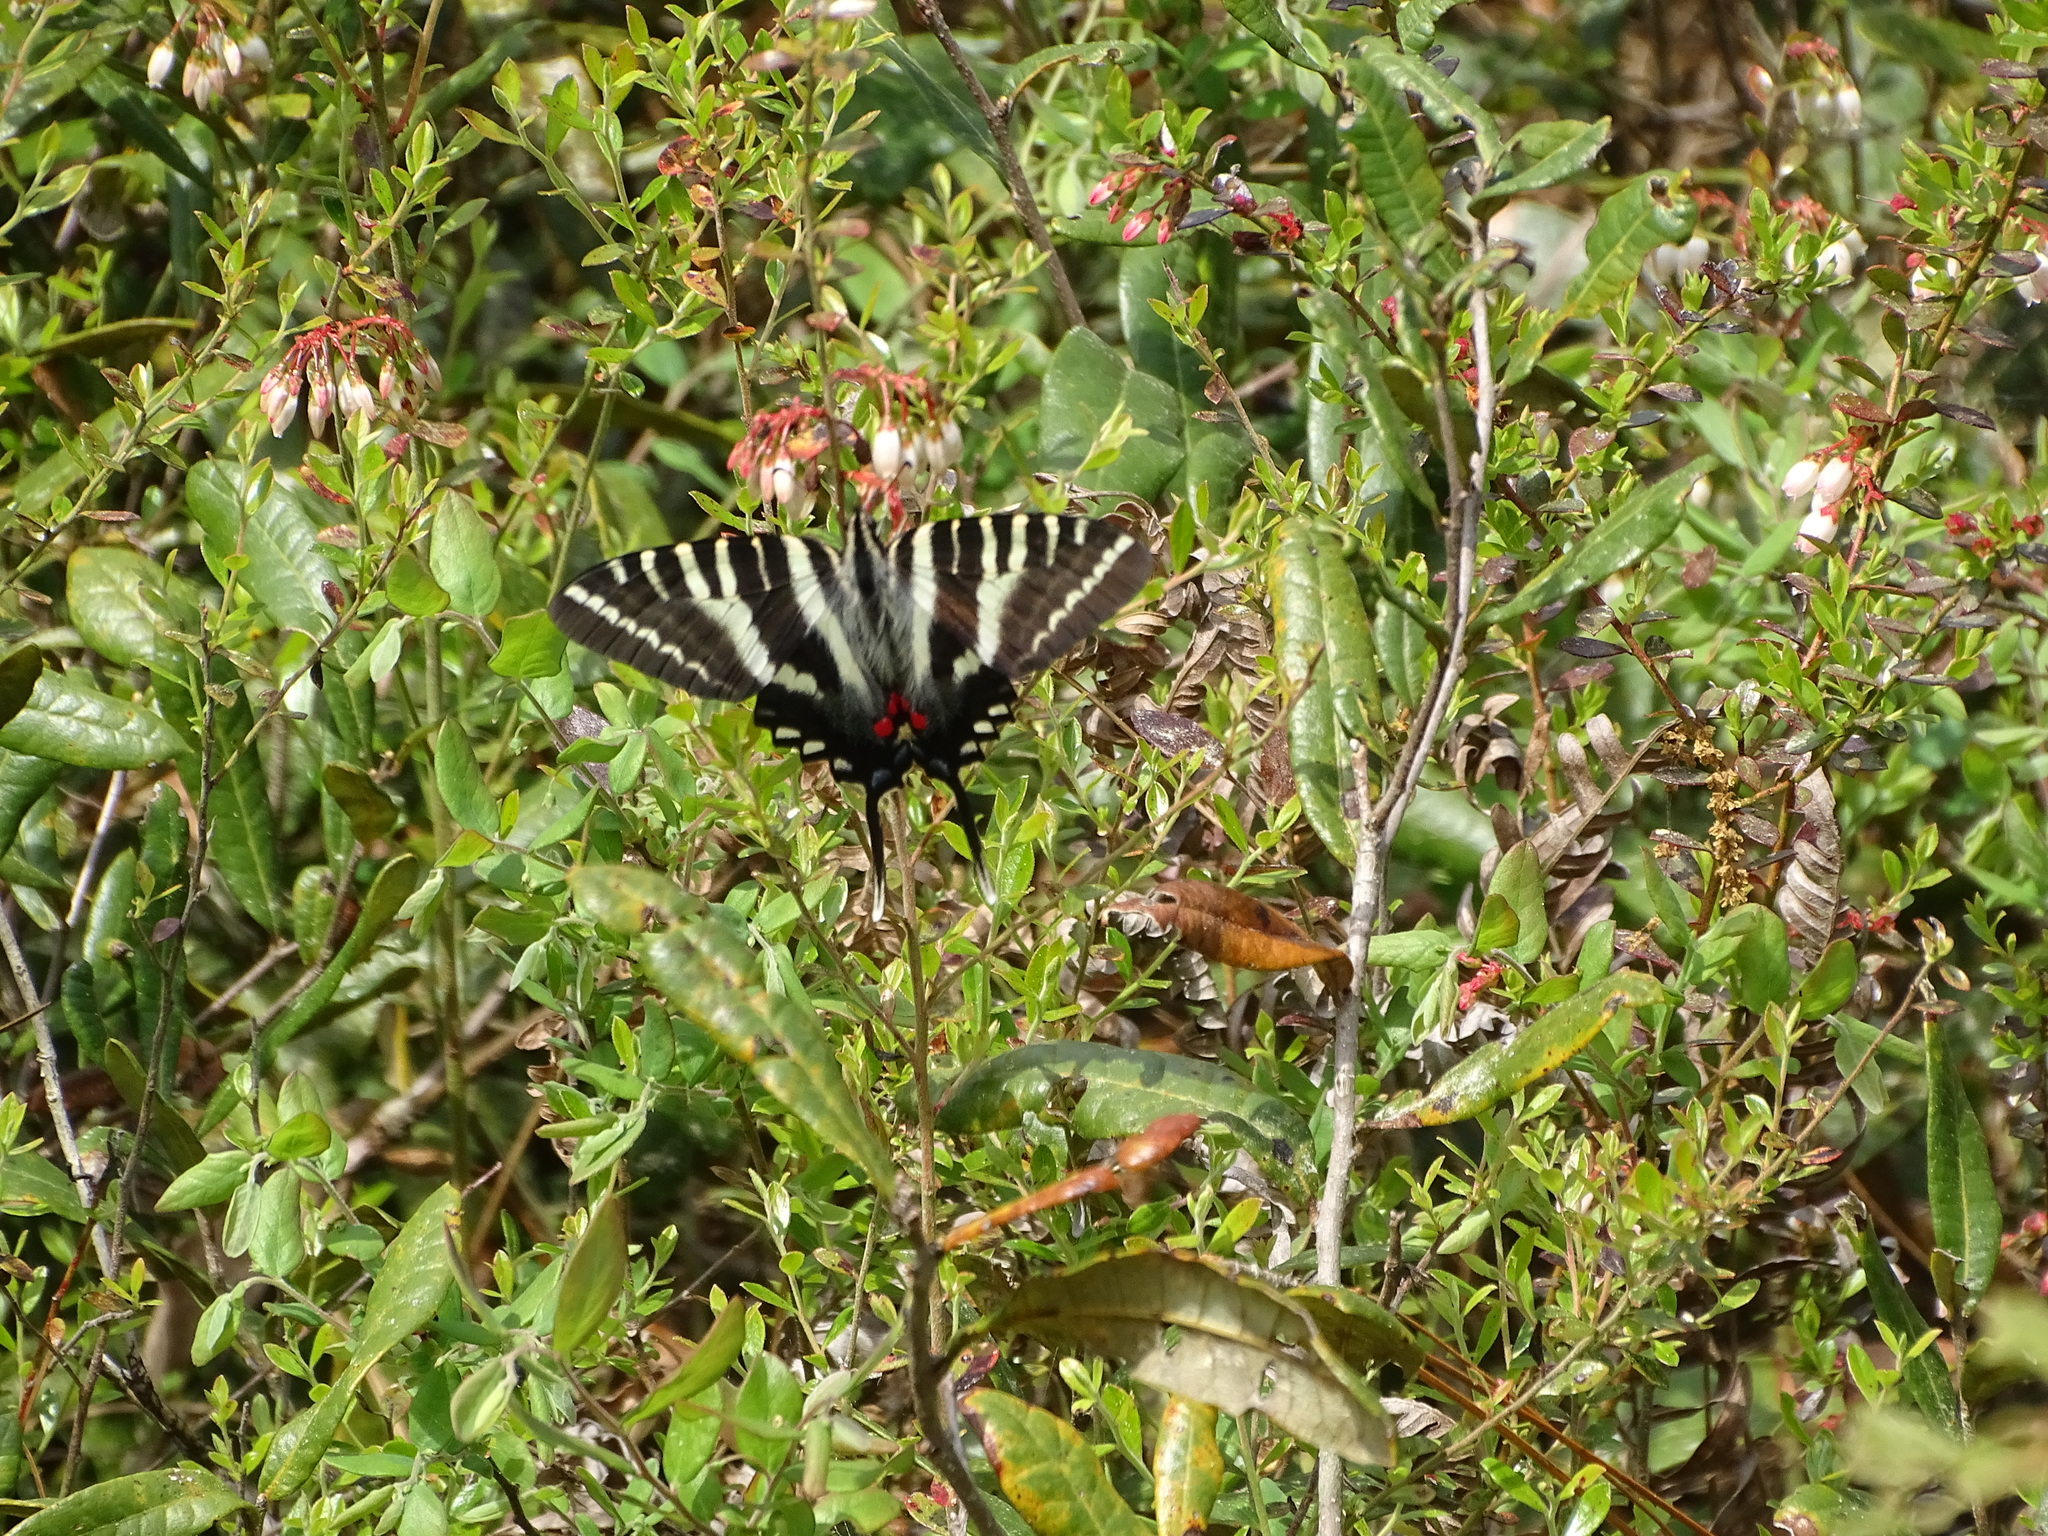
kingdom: Animalia
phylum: Arthropoda
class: Insecta
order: Lepidoptera
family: Papilionidae
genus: Protographium
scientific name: Protographium marcellus
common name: Zebra swallowtail
